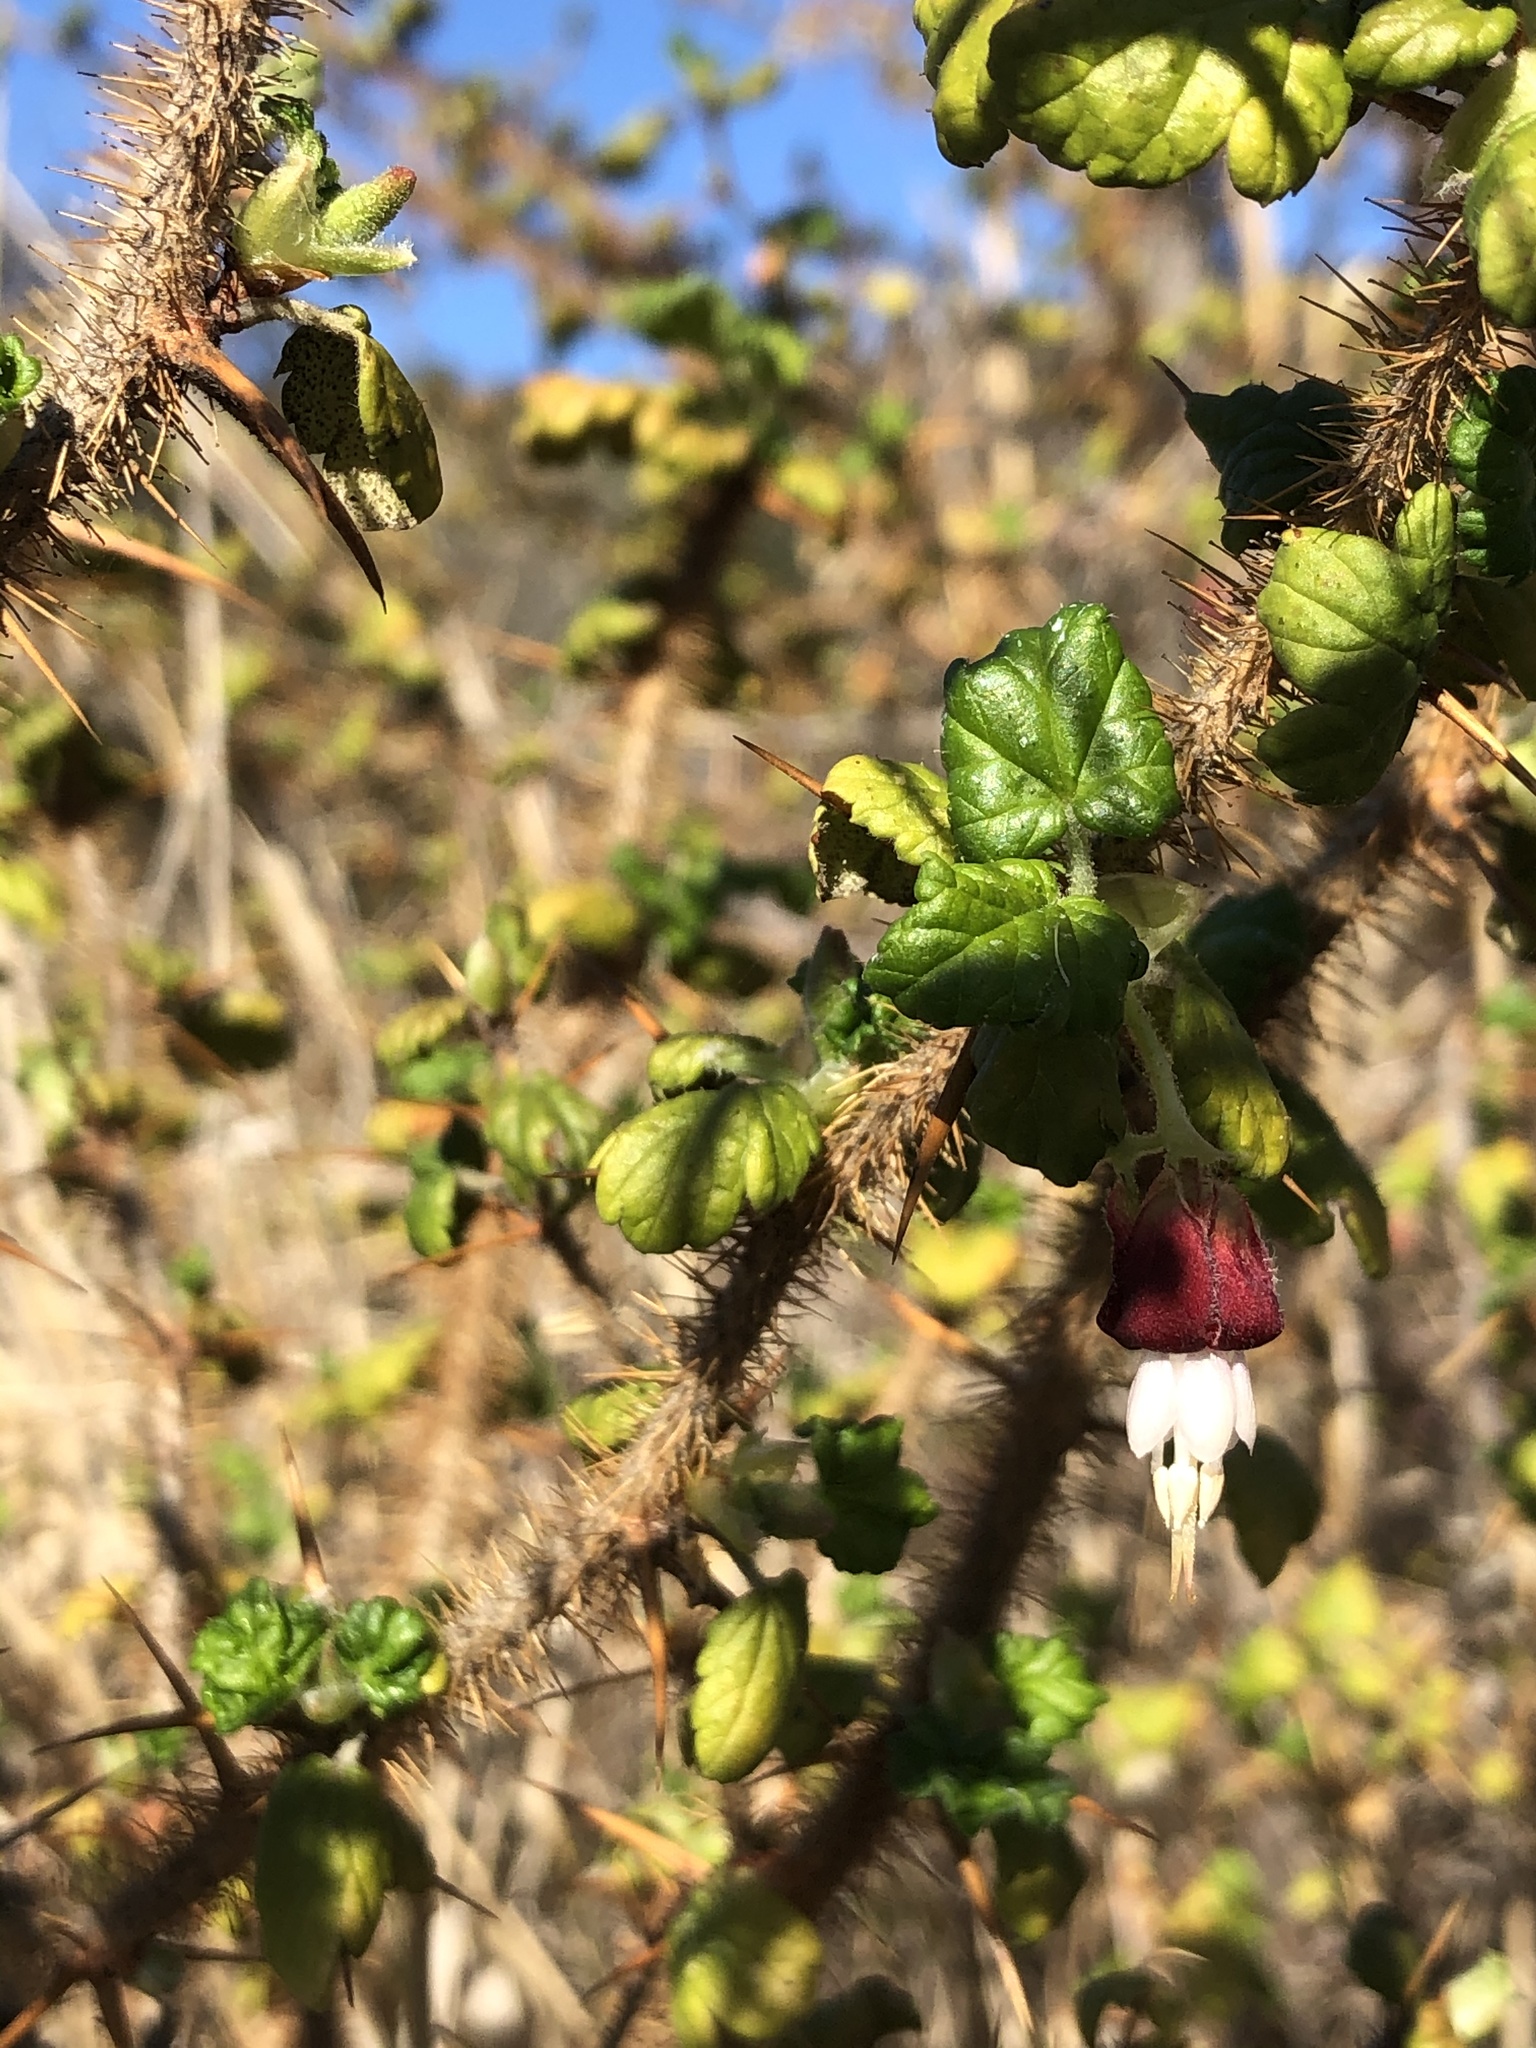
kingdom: Plantae
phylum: Tracheophyta
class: Magnoliopsida
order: Saxifragales
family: Grossulariaceae
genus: Ribes
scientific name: Ribes menziesii
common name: Canyon gooseberry
